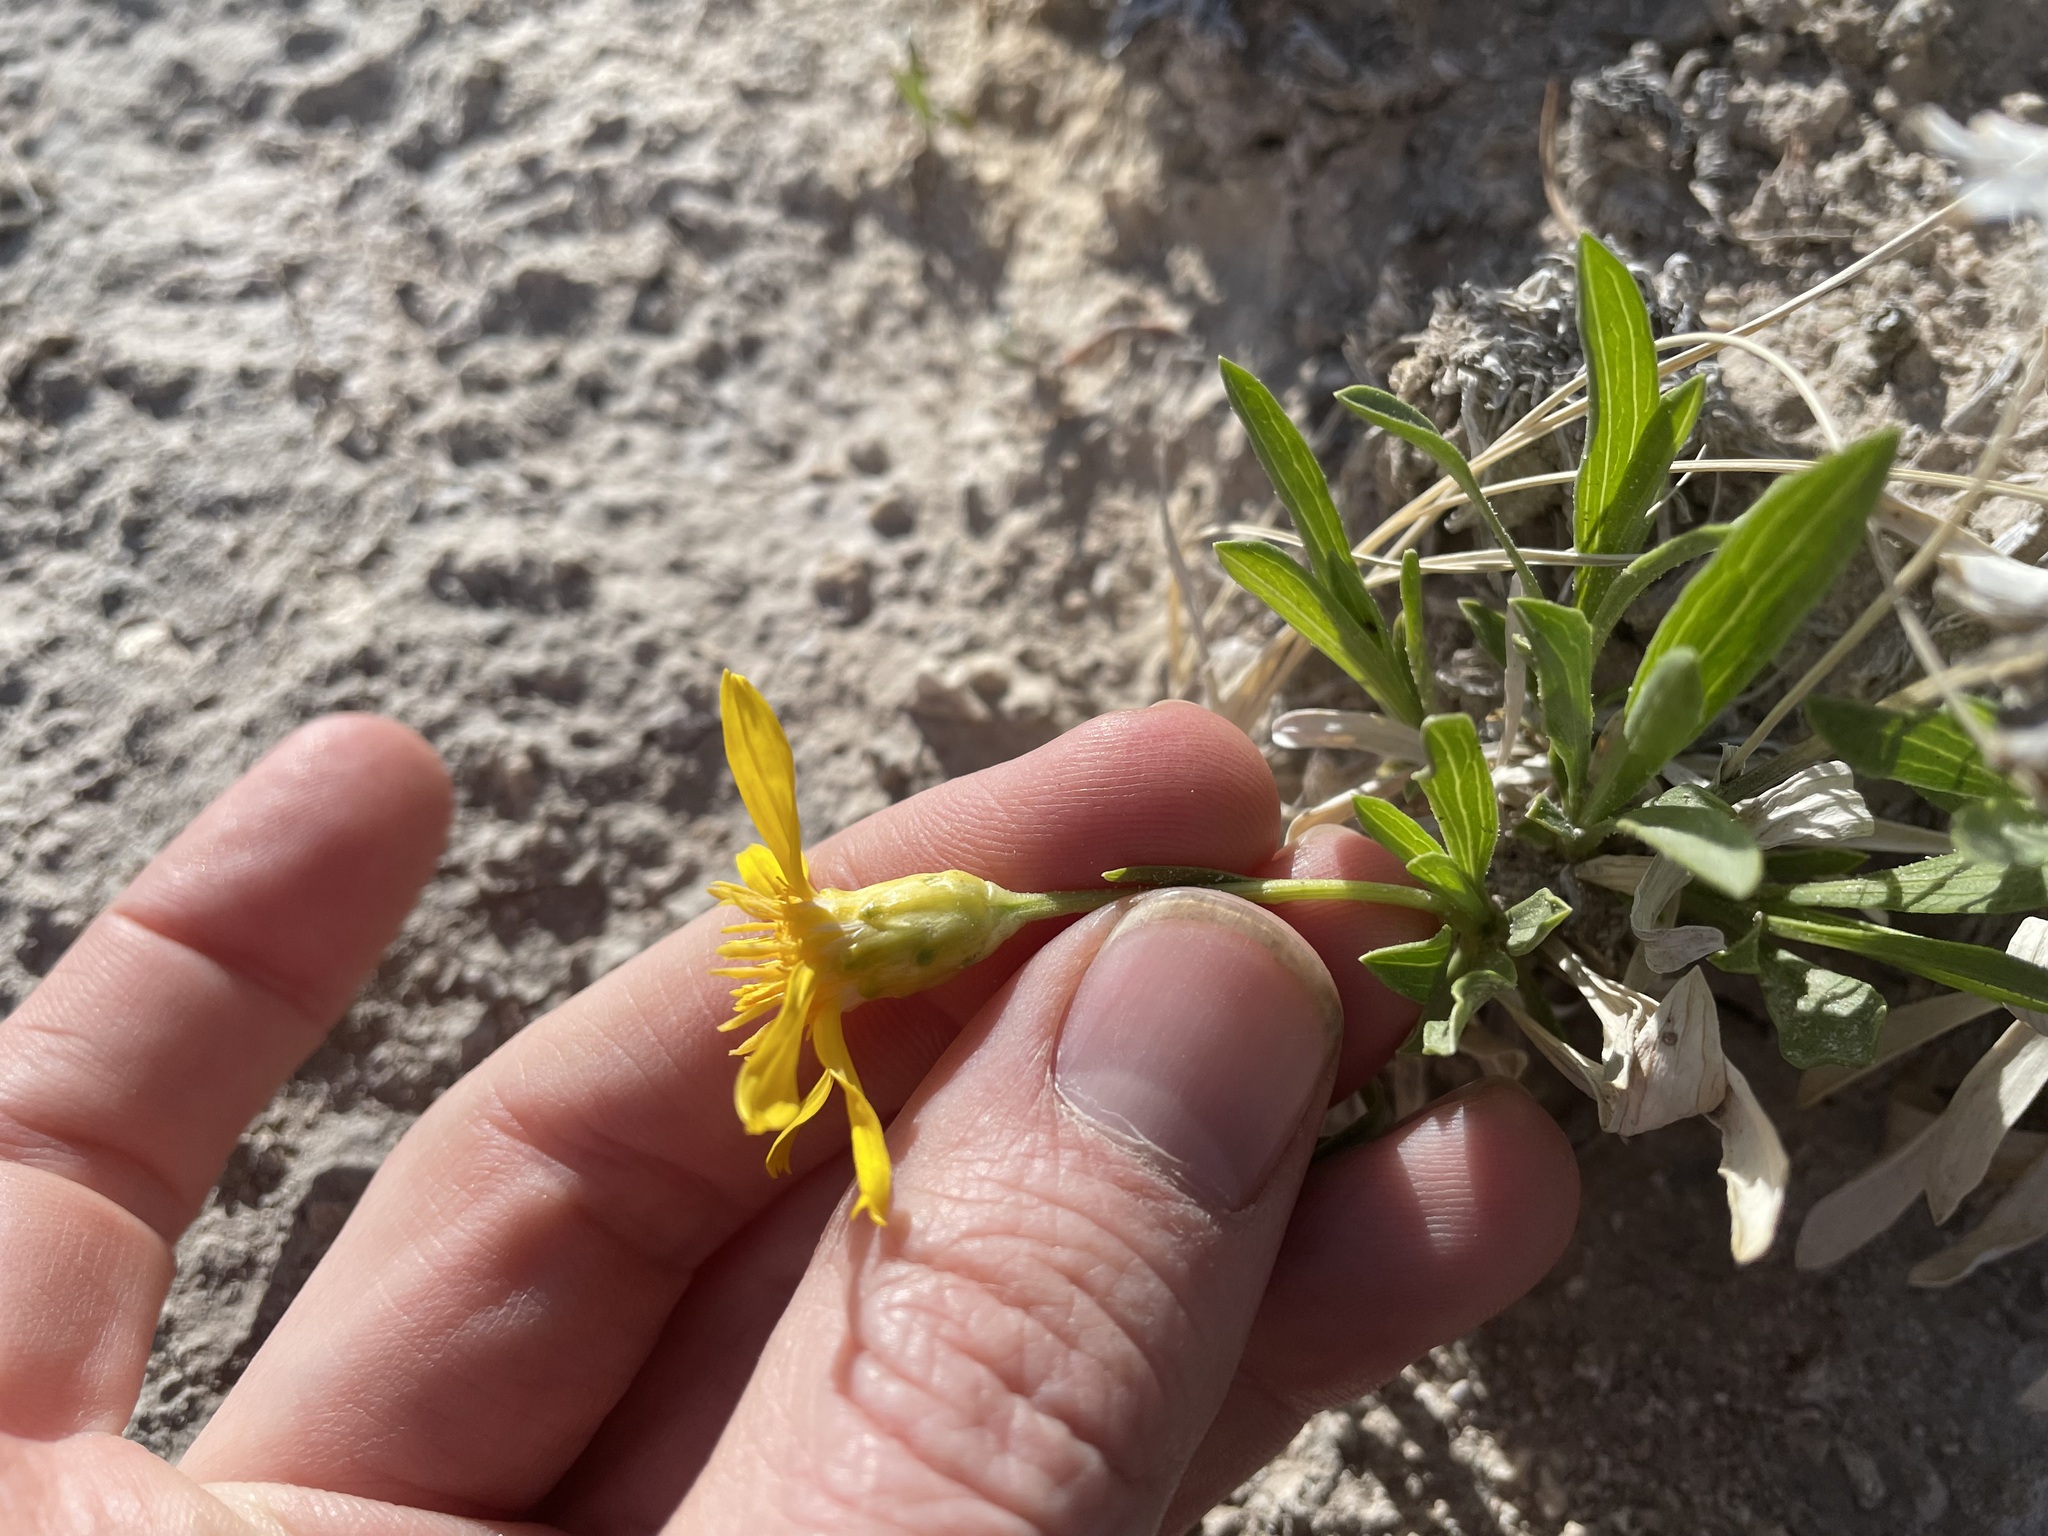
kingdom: Plantae
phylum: Tracheophyta
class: Magnoliopsida
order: Asterales
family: Asteraceae
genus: Stenotus
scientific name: Stenotus armerioides
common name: Thrifty goldenweed
